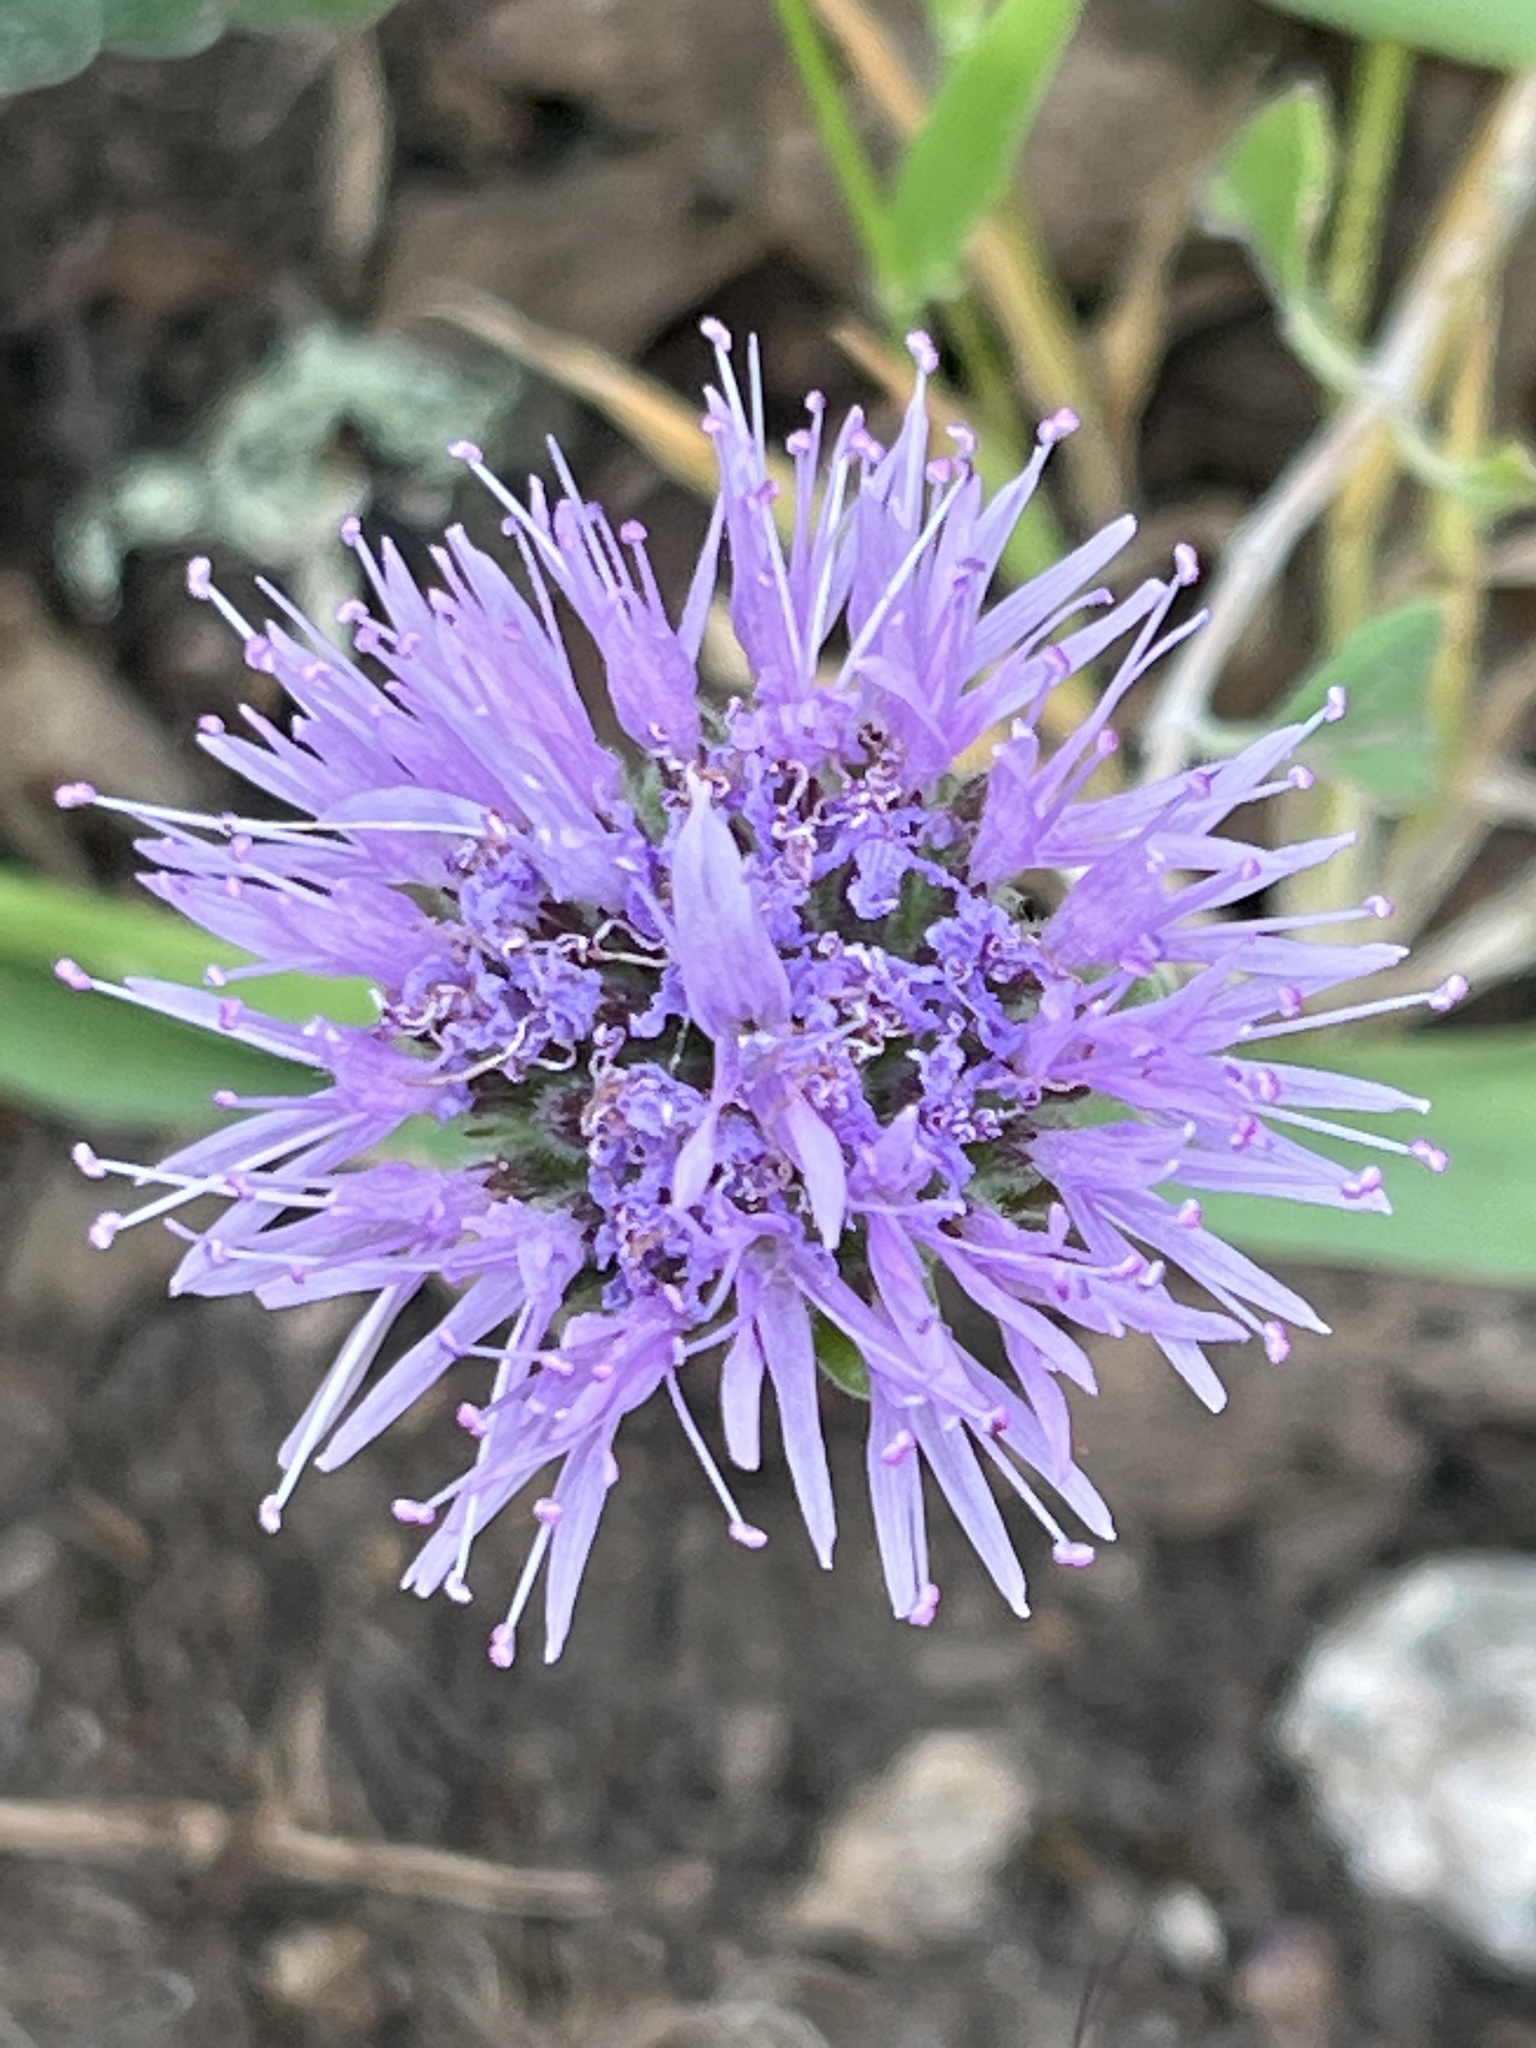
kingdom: Plantae
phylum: Tracheophyta
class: Magnoliopsida
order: Lamiales
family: Lamiaceae
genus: Monardella
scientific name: Monardella odoratissima
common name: Pacific monardella
